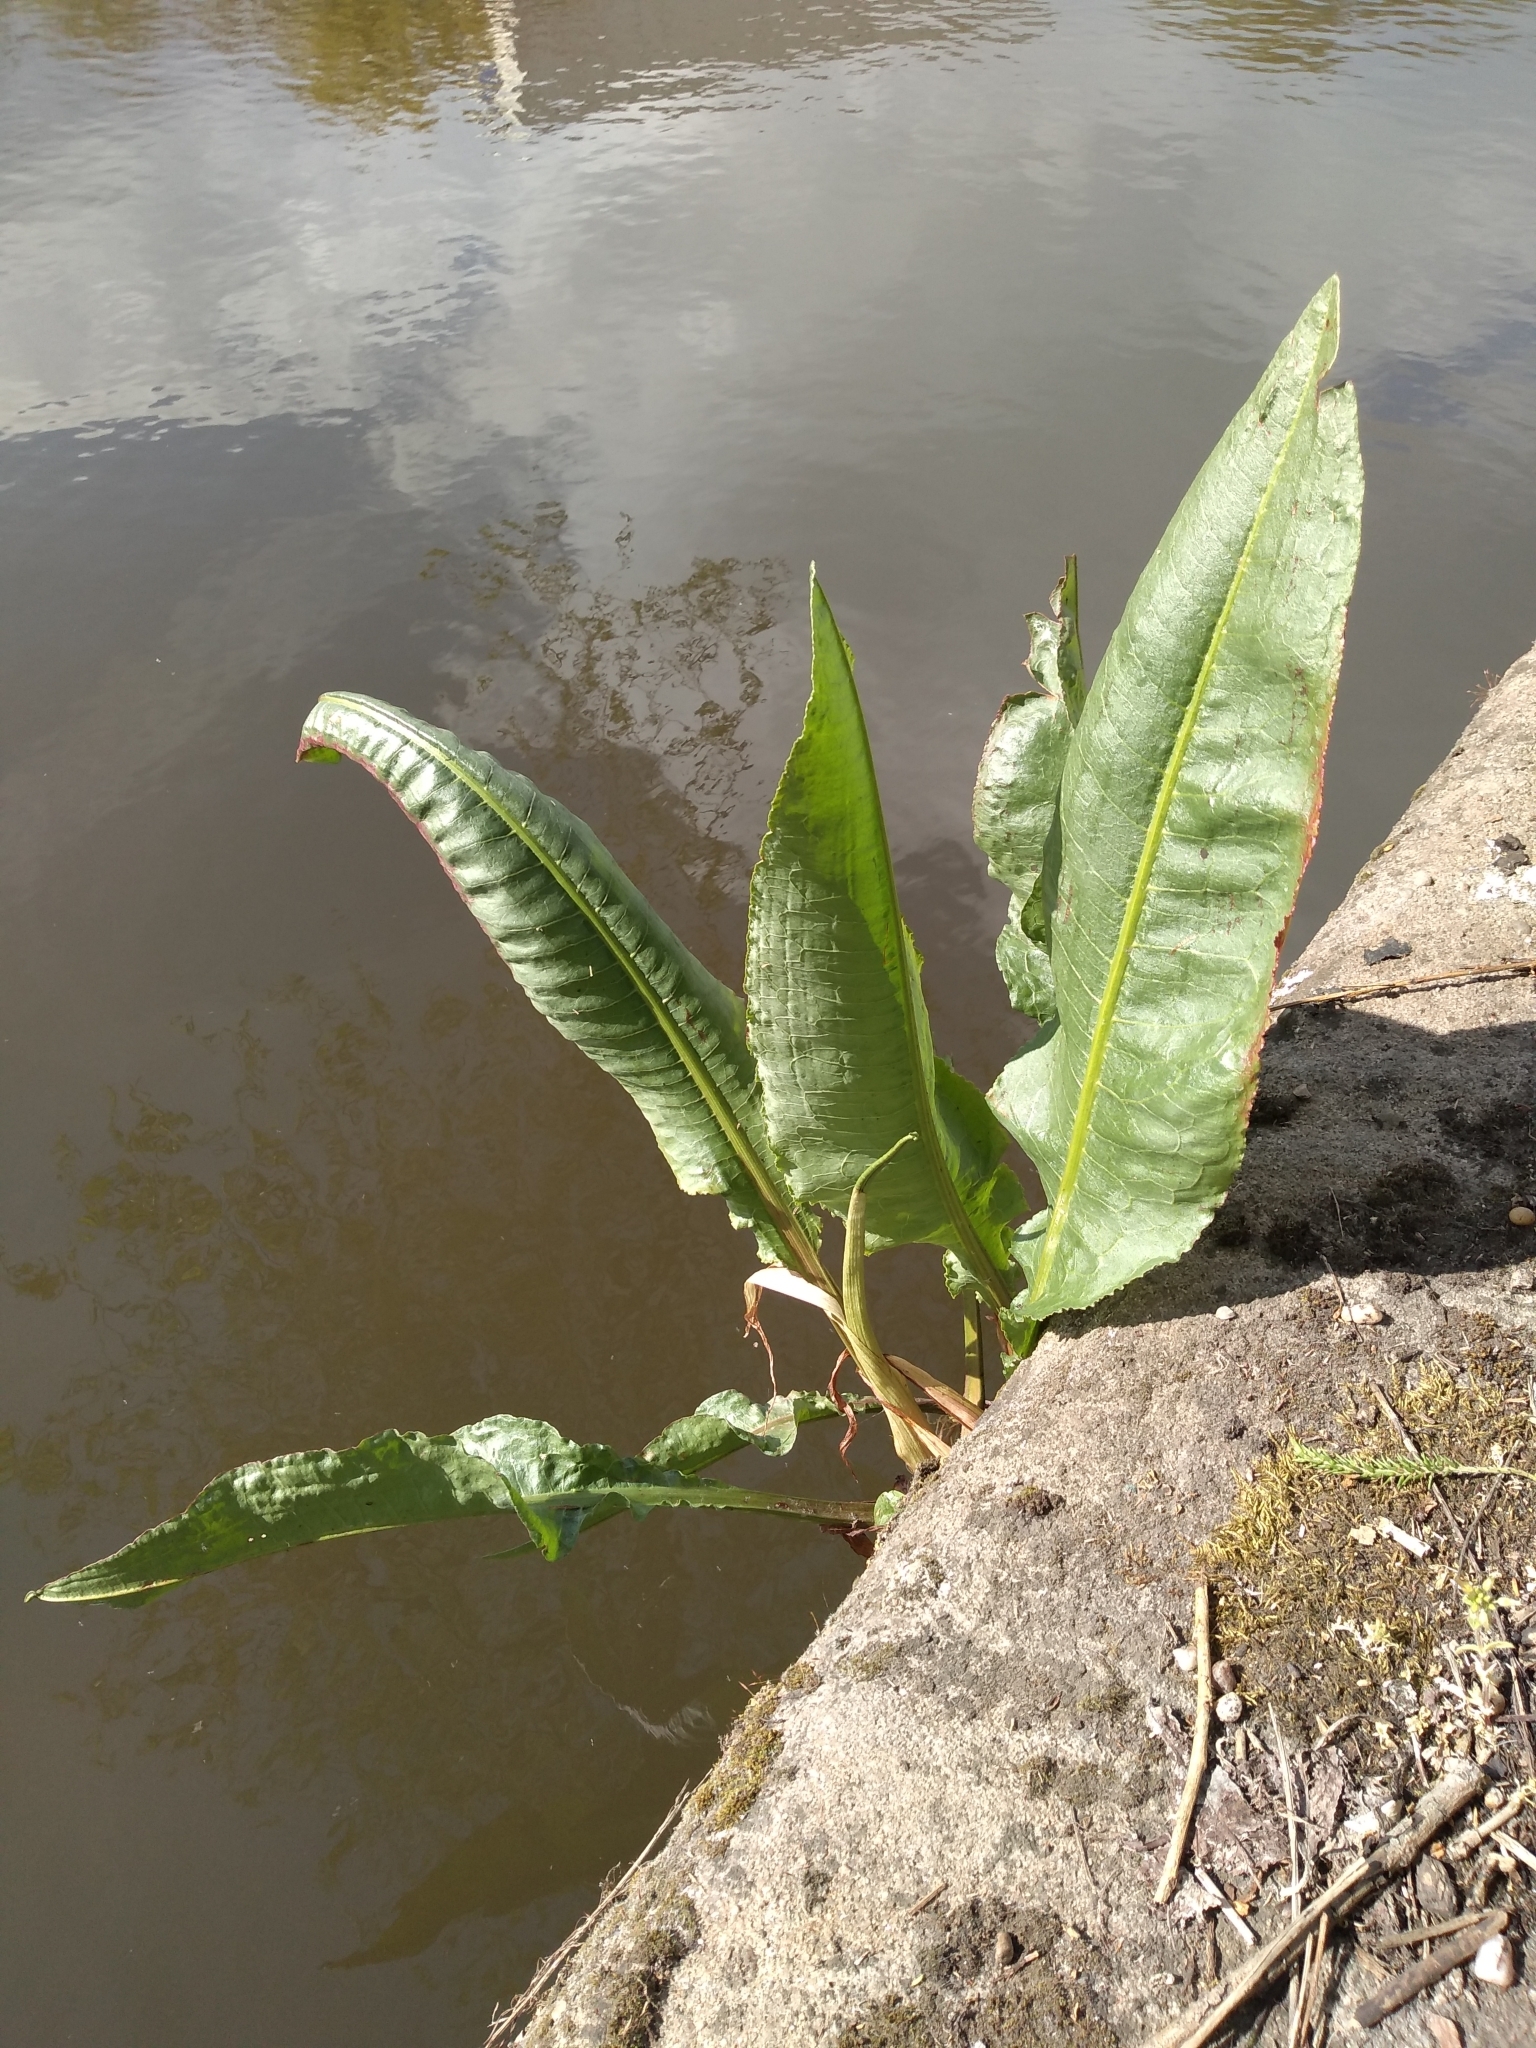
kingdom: Plantae
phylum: Tracheophyta
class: Magnoliopsida
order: Caryophyllales
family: Polygonaceae
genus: Rumex
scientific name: Rumex hydrolapathum
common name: Water dock
